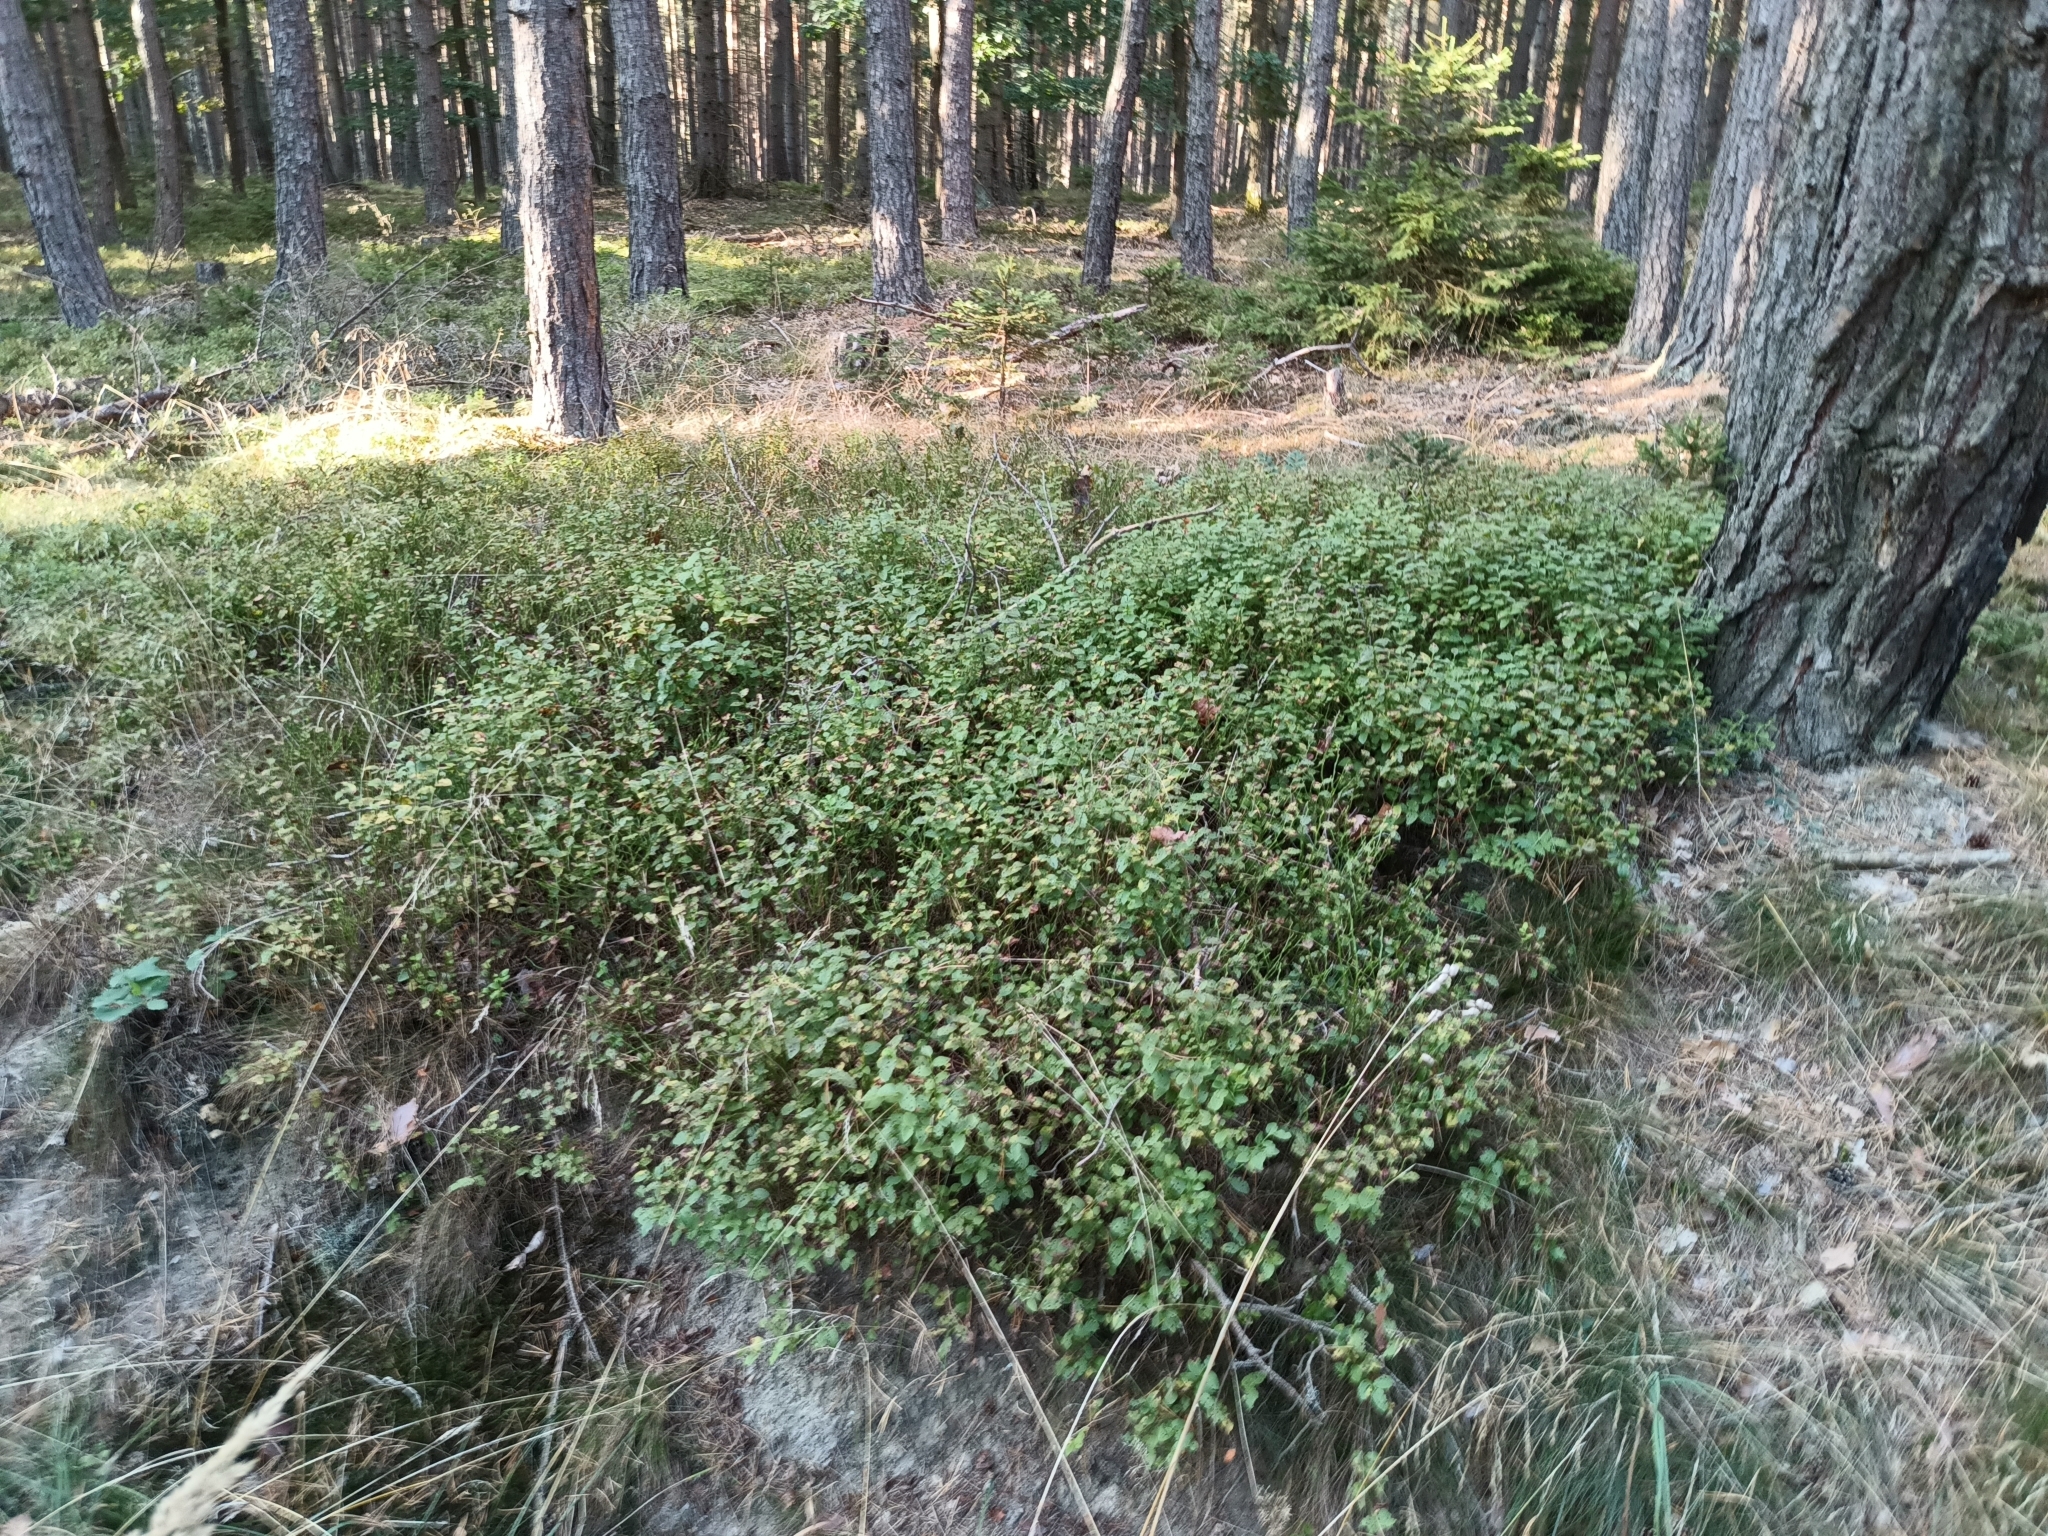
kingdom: Plantae
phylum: Tracheophyta
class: Magnoliopsida
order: Ericales
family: Ericaceae
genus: Vaccinium
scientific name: Vaccinium myrtillus
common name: Bilberry
